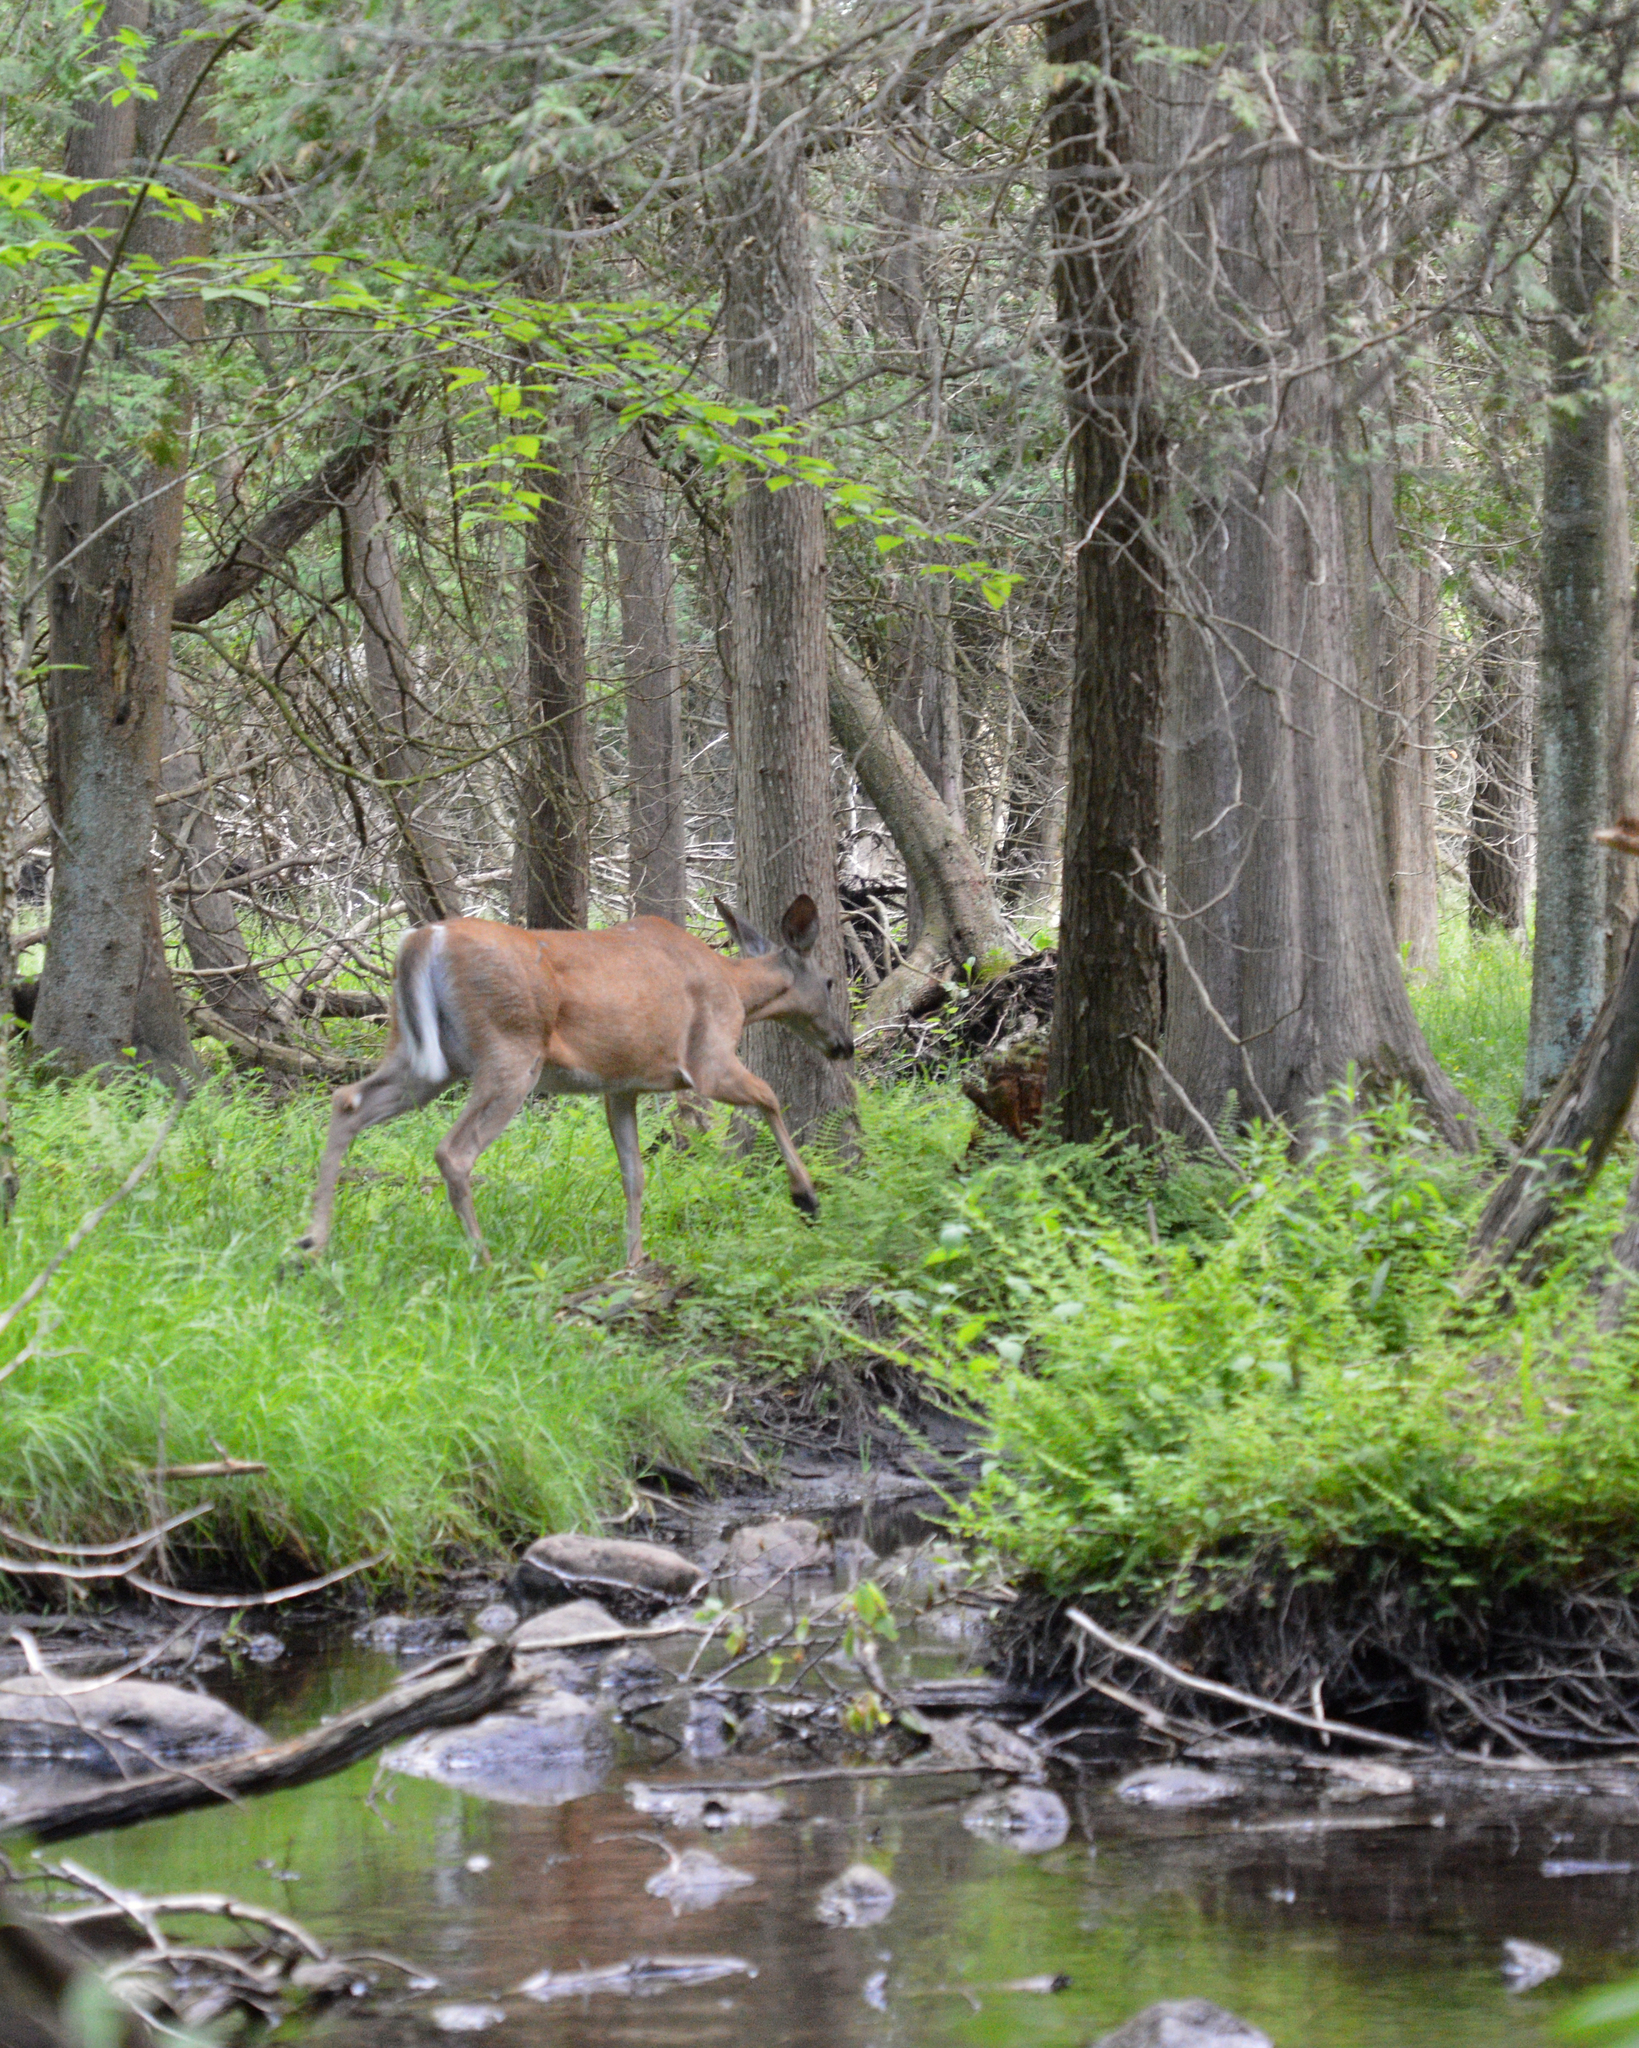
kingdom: Animalia
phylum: Chordata
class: Mammalia
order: Artiodactyla
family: Cervidae
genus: Odocoileus
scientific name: Odocoileus virginianus
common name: White-tailed deer
